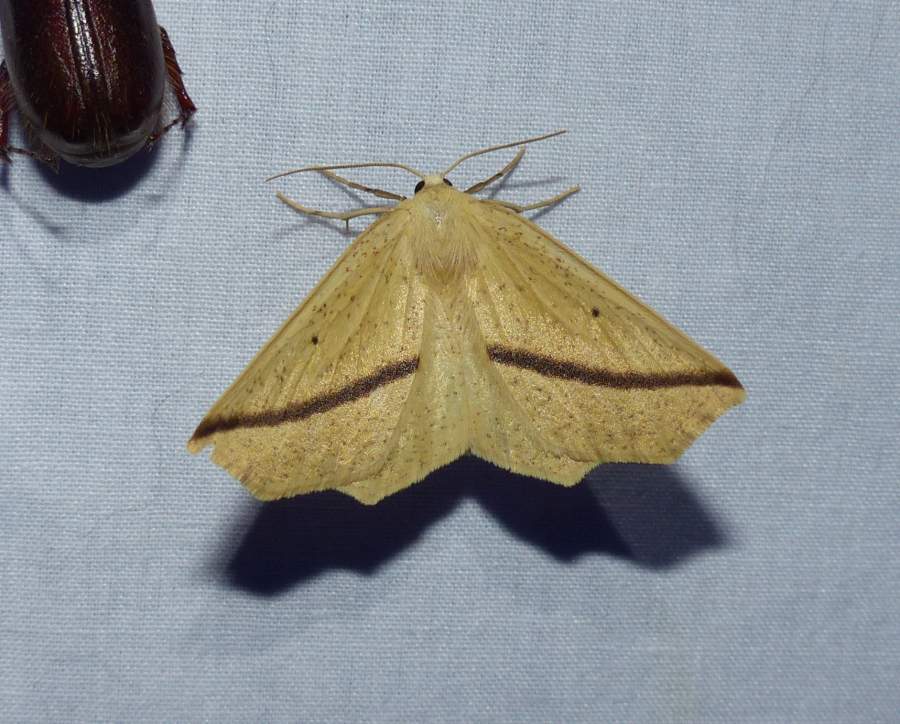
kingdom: Animalia
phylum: Arthropoda
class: Insecta
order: Lepidoptera
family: Geometridae
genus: Tetracis
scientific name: Tetracis crocallata
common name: Yellow slant-line
